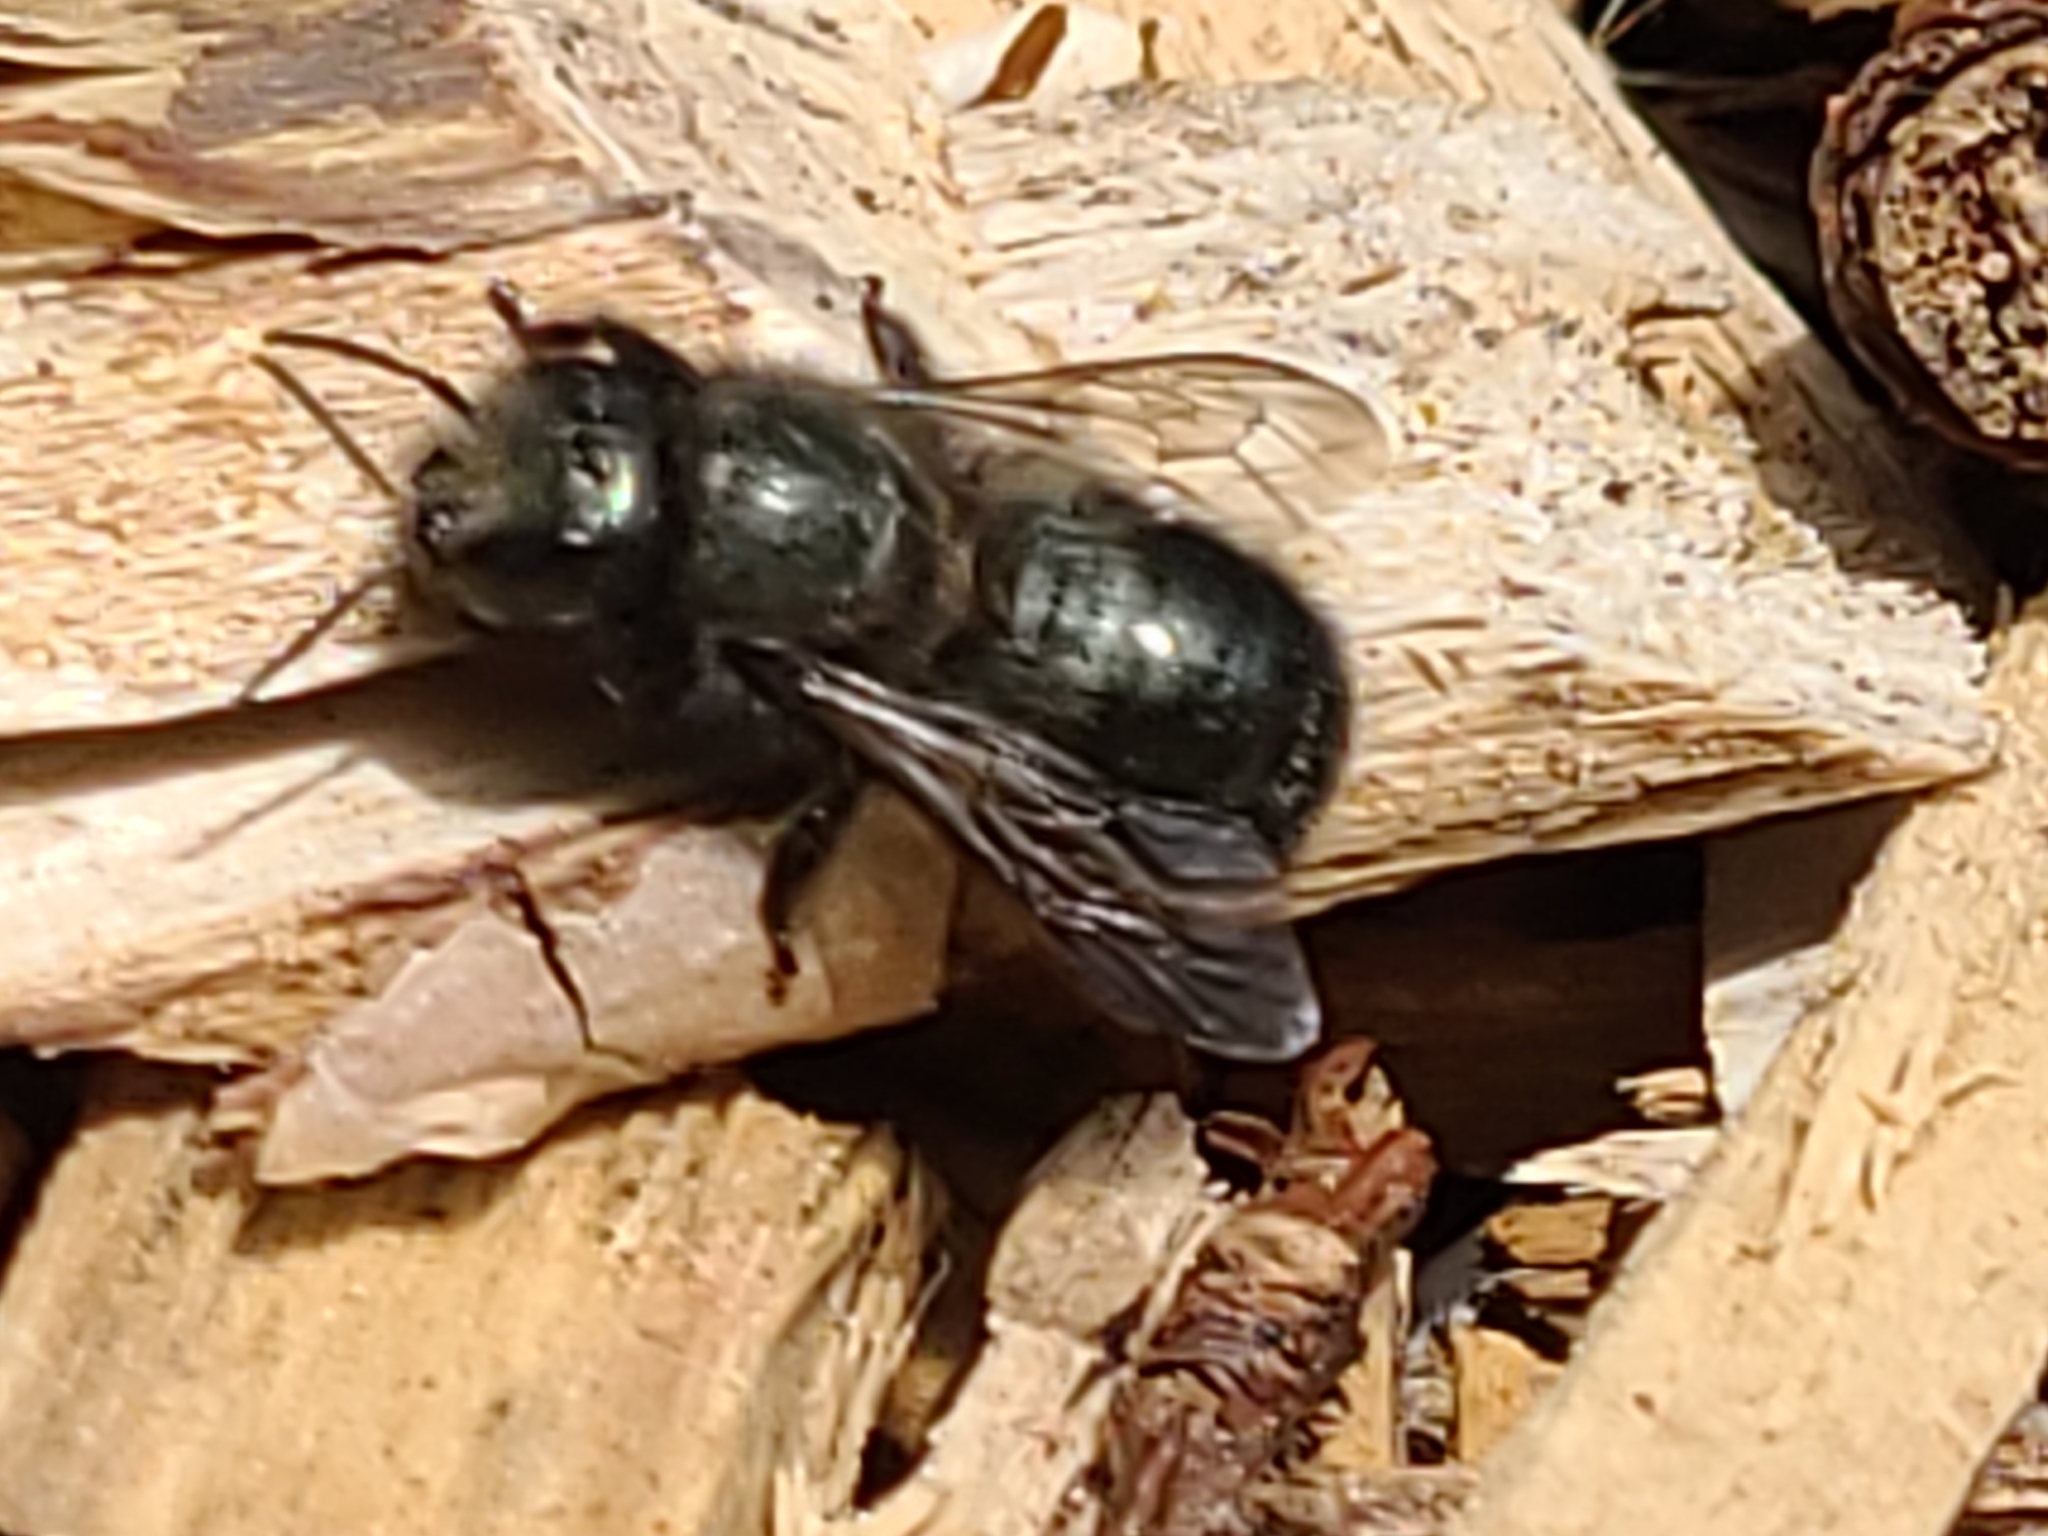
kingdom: Animalia
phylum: Arthropoda
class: Insecta
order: Hymenoptera
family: Megachilidae
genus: Osmia
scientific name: Osmia lignaria
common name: Blue orchard bee
